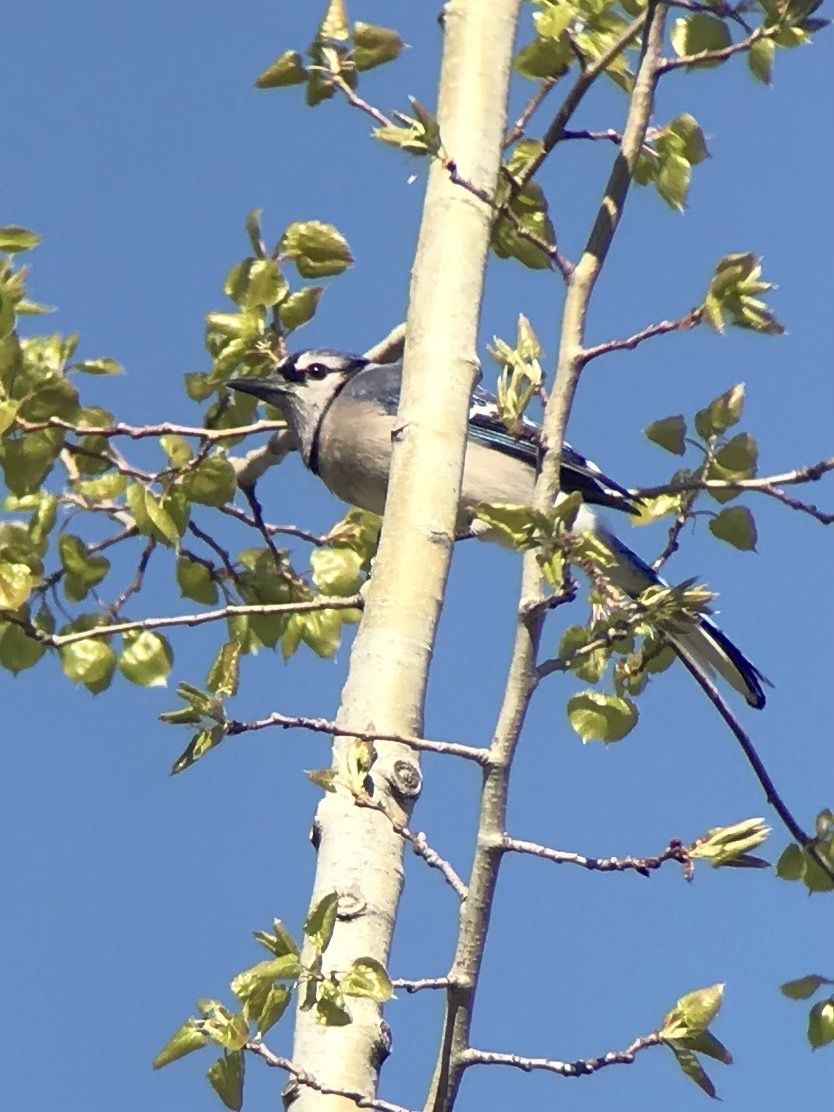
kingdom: Animalia
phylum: Chordata
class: Aves
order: Passeriformes
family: Corvidae
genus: Cyanocitta
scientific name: Cyanocitta cristata
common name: Blue jay
